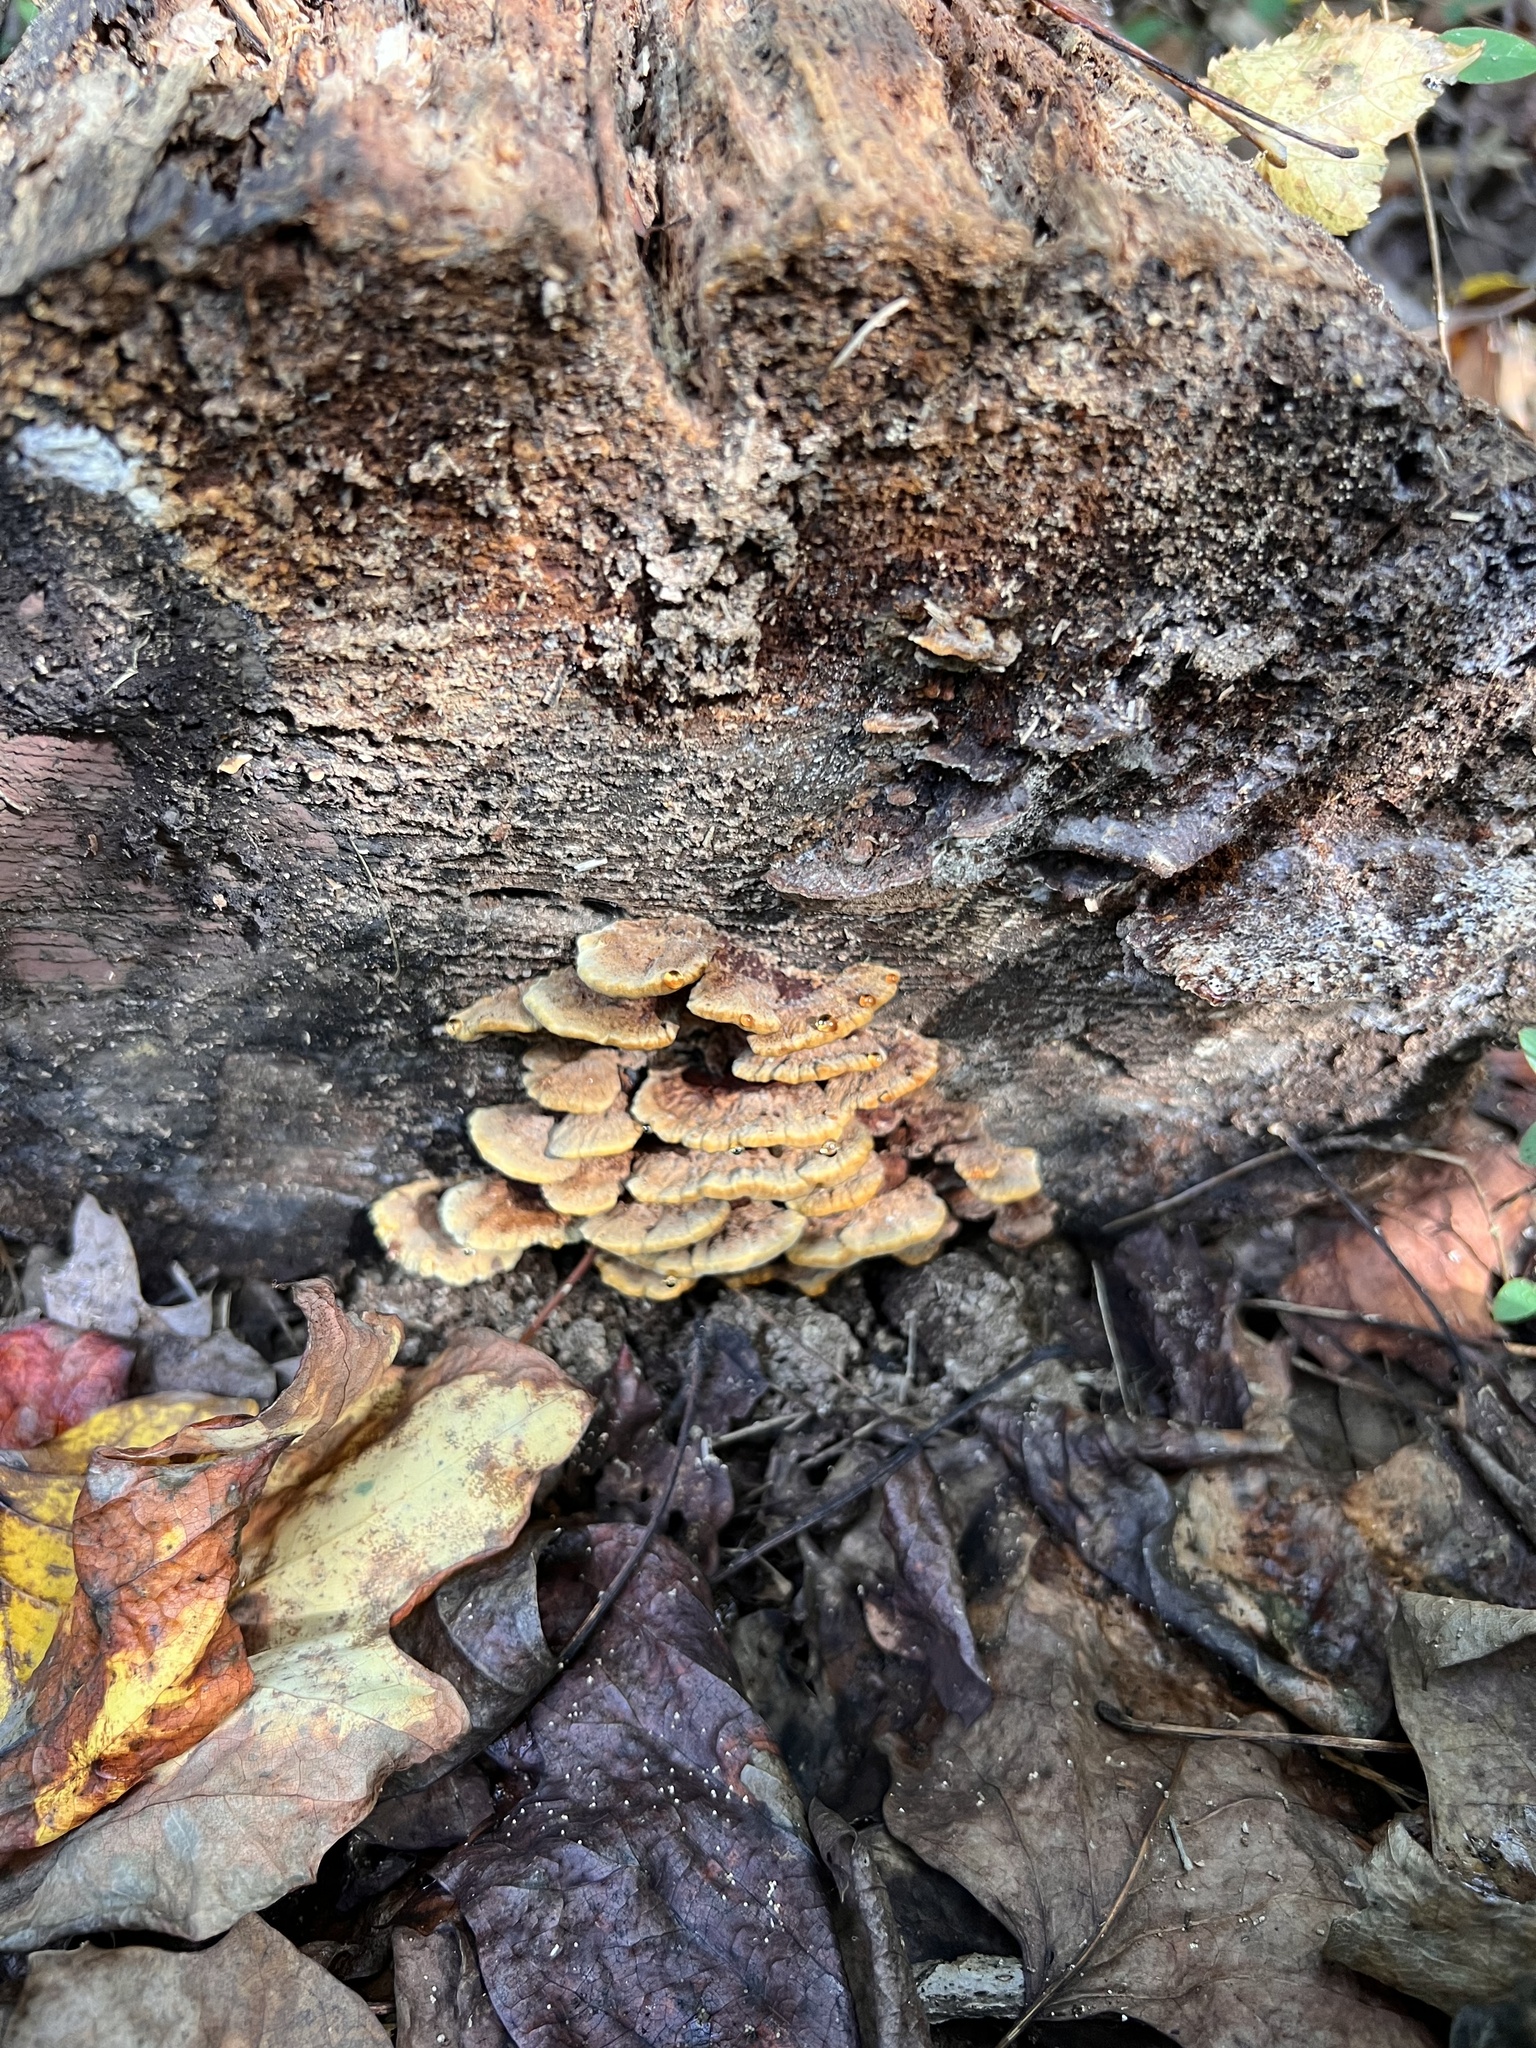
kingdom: Fungi
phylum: Basidiomycota
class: Agaricomycetes
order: Hymenochaetales
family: Hymenochaetaceae
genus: Phellinus
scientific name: Phellinus gilvus
